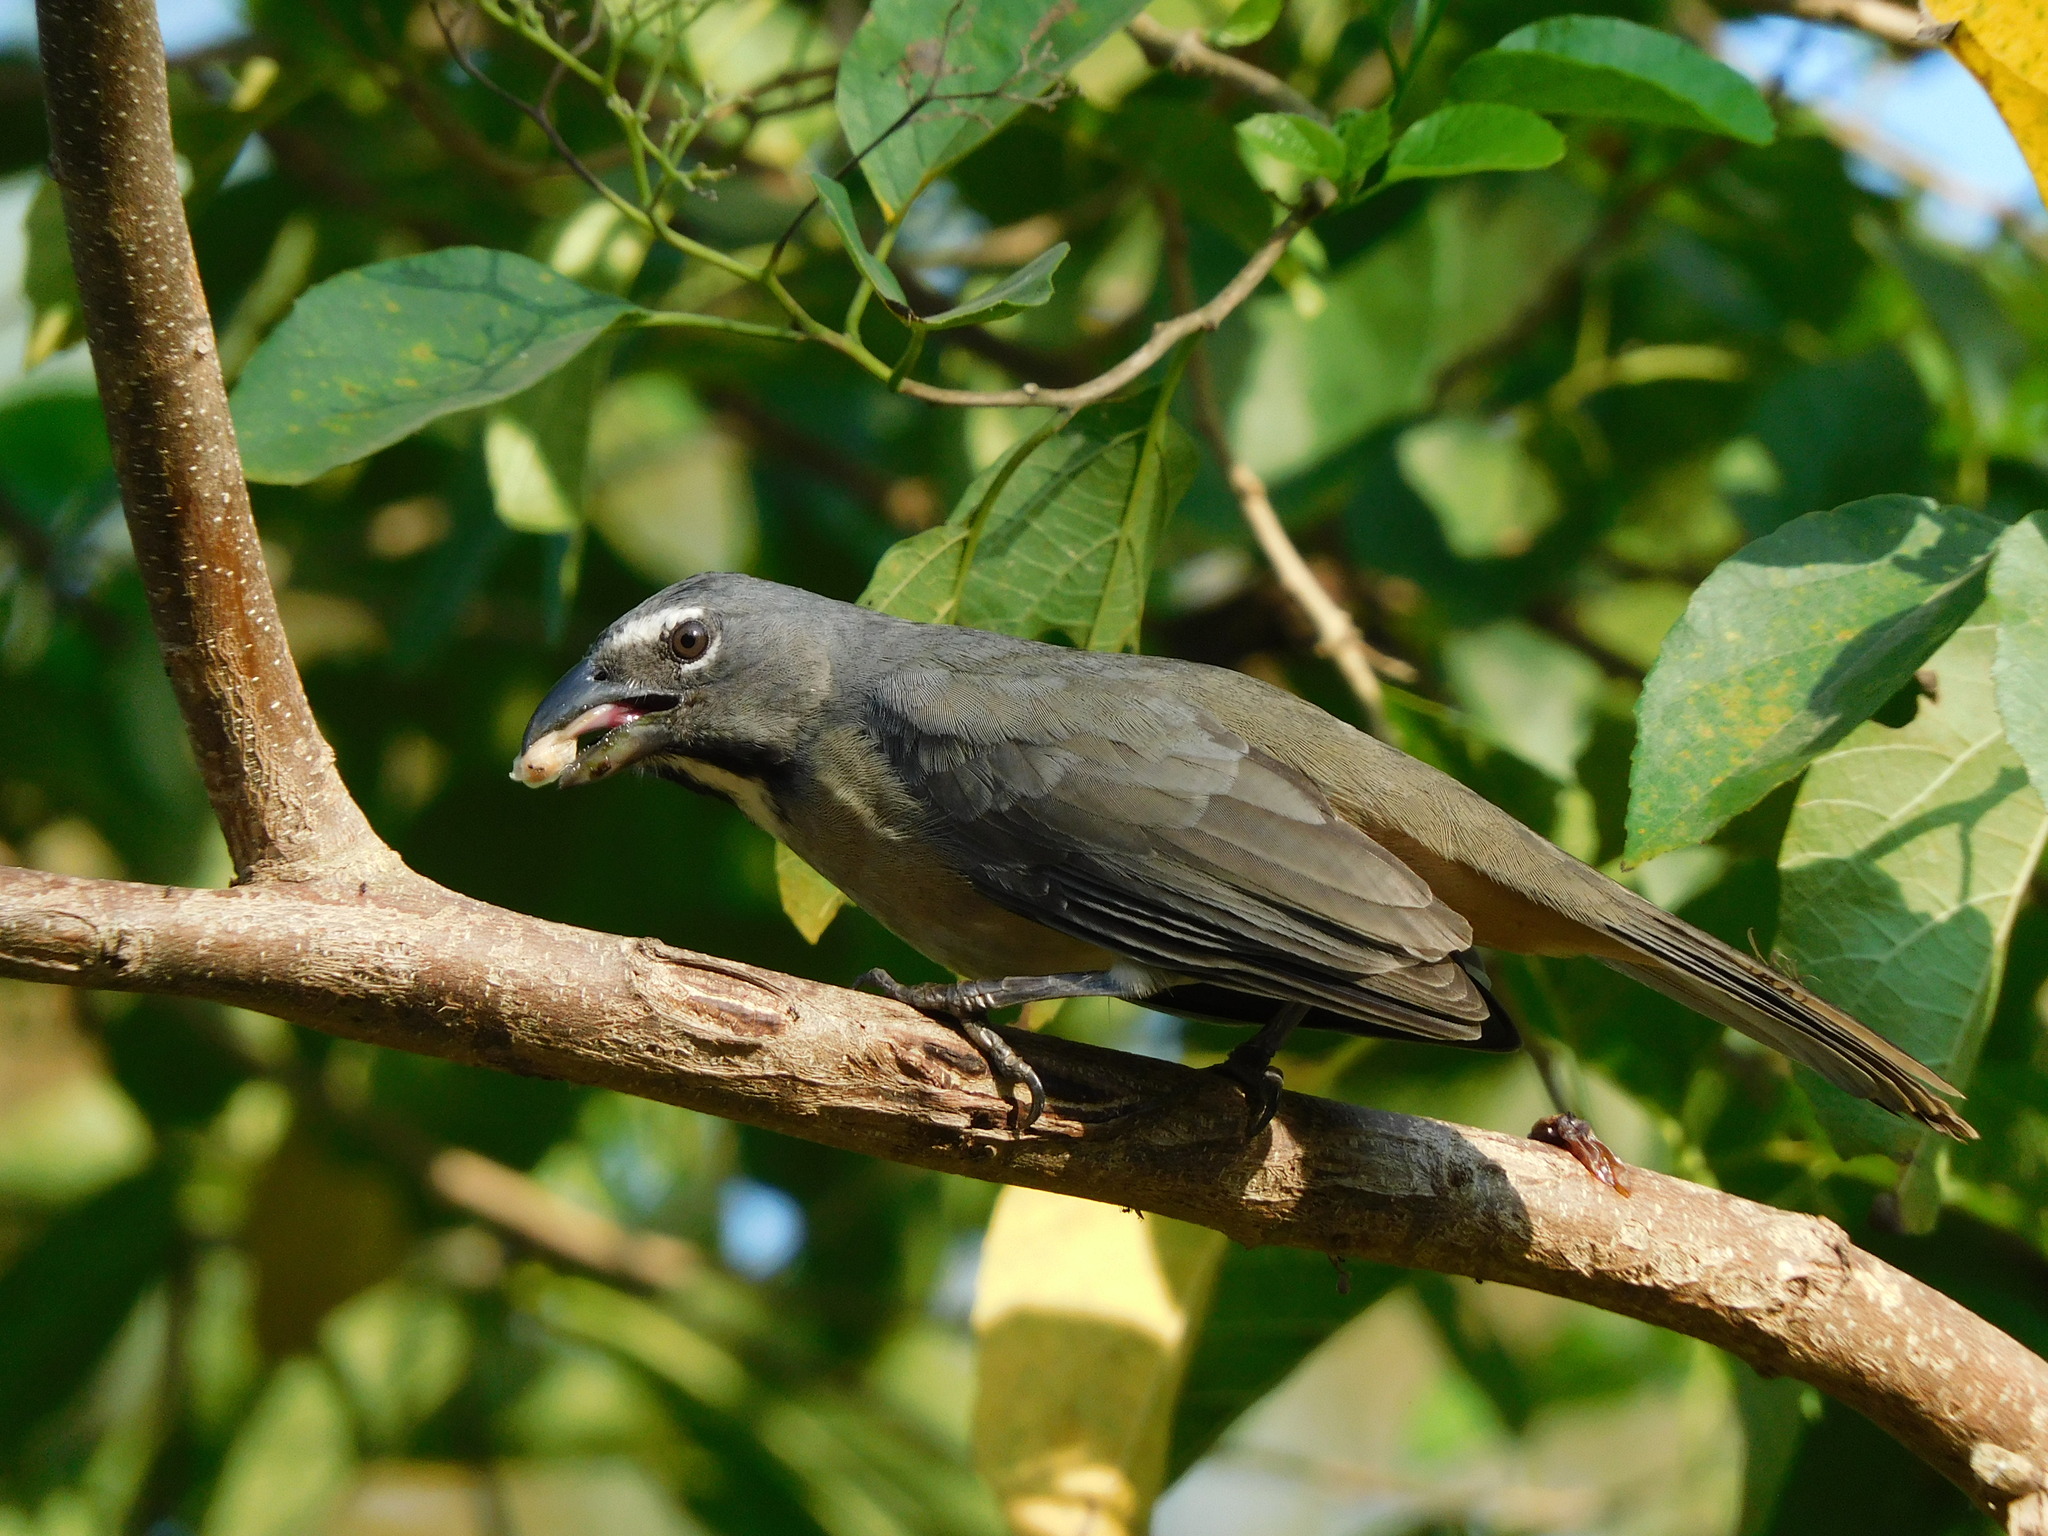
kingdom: Animalia
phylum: Chordata
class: Aves
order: Passeriformes
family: Thraupidae
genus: Saltator
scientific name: Saltator olivascens
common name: Caribbean grey saltator
